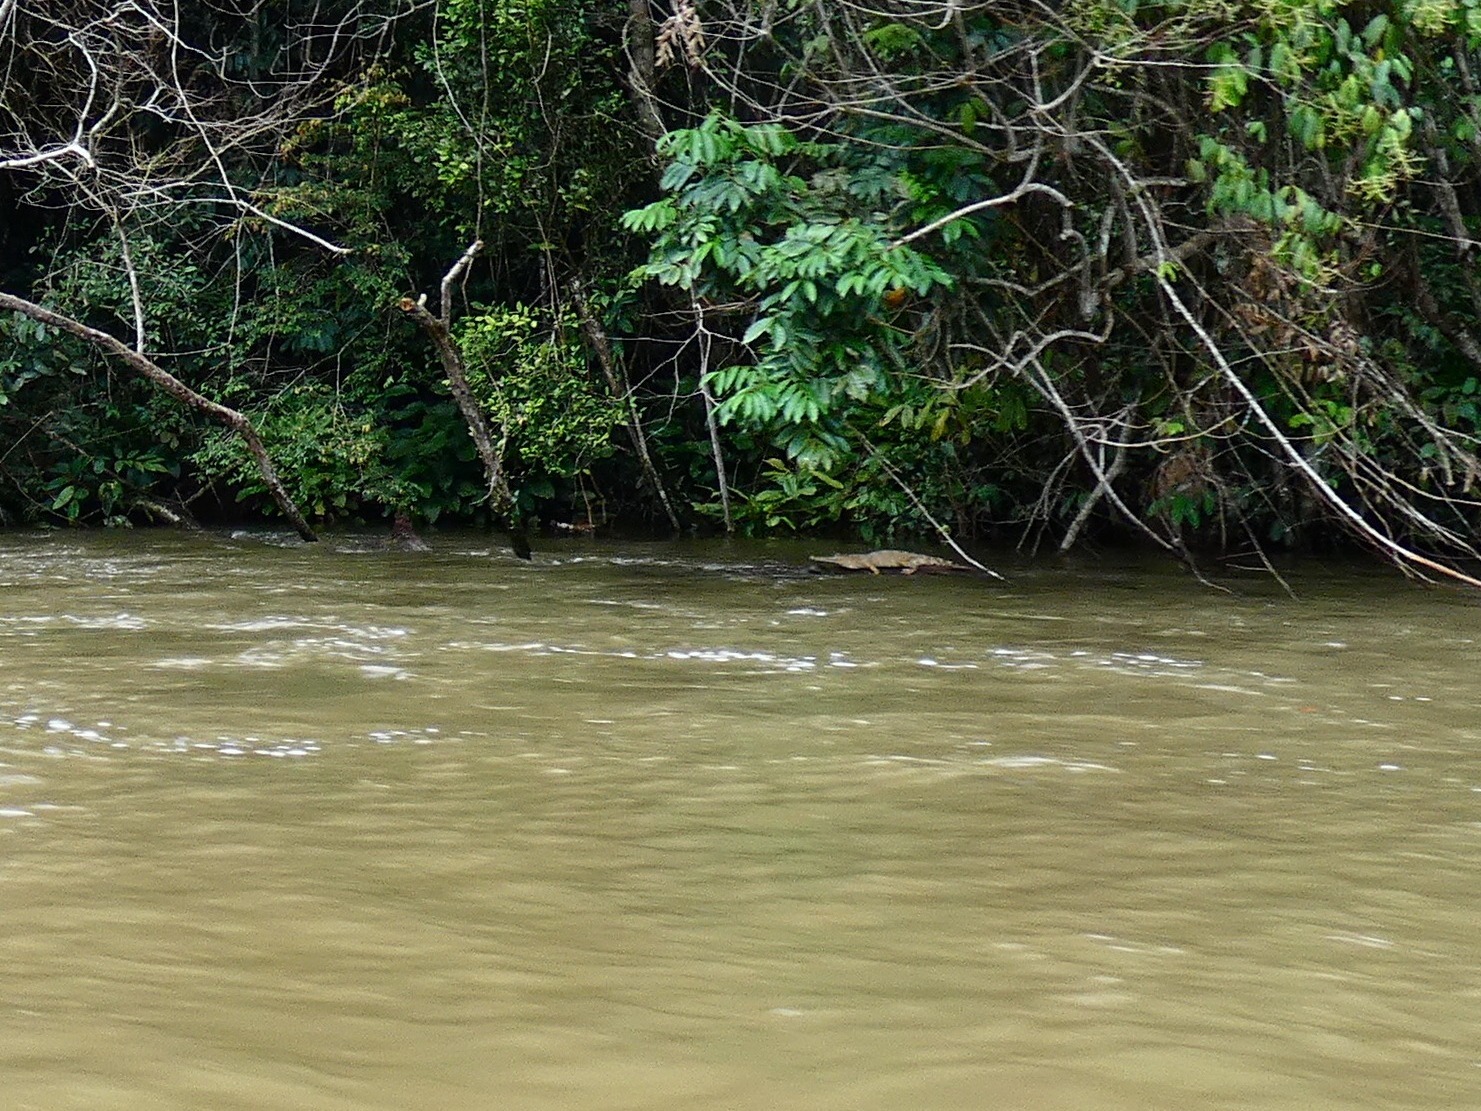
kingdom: Animalia
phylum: Chordata
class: Crocodylia
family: Crocodylidae
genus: Mecistops
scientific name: Mecistops leptorhynchus
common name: Central african slender-snouted crocodile
